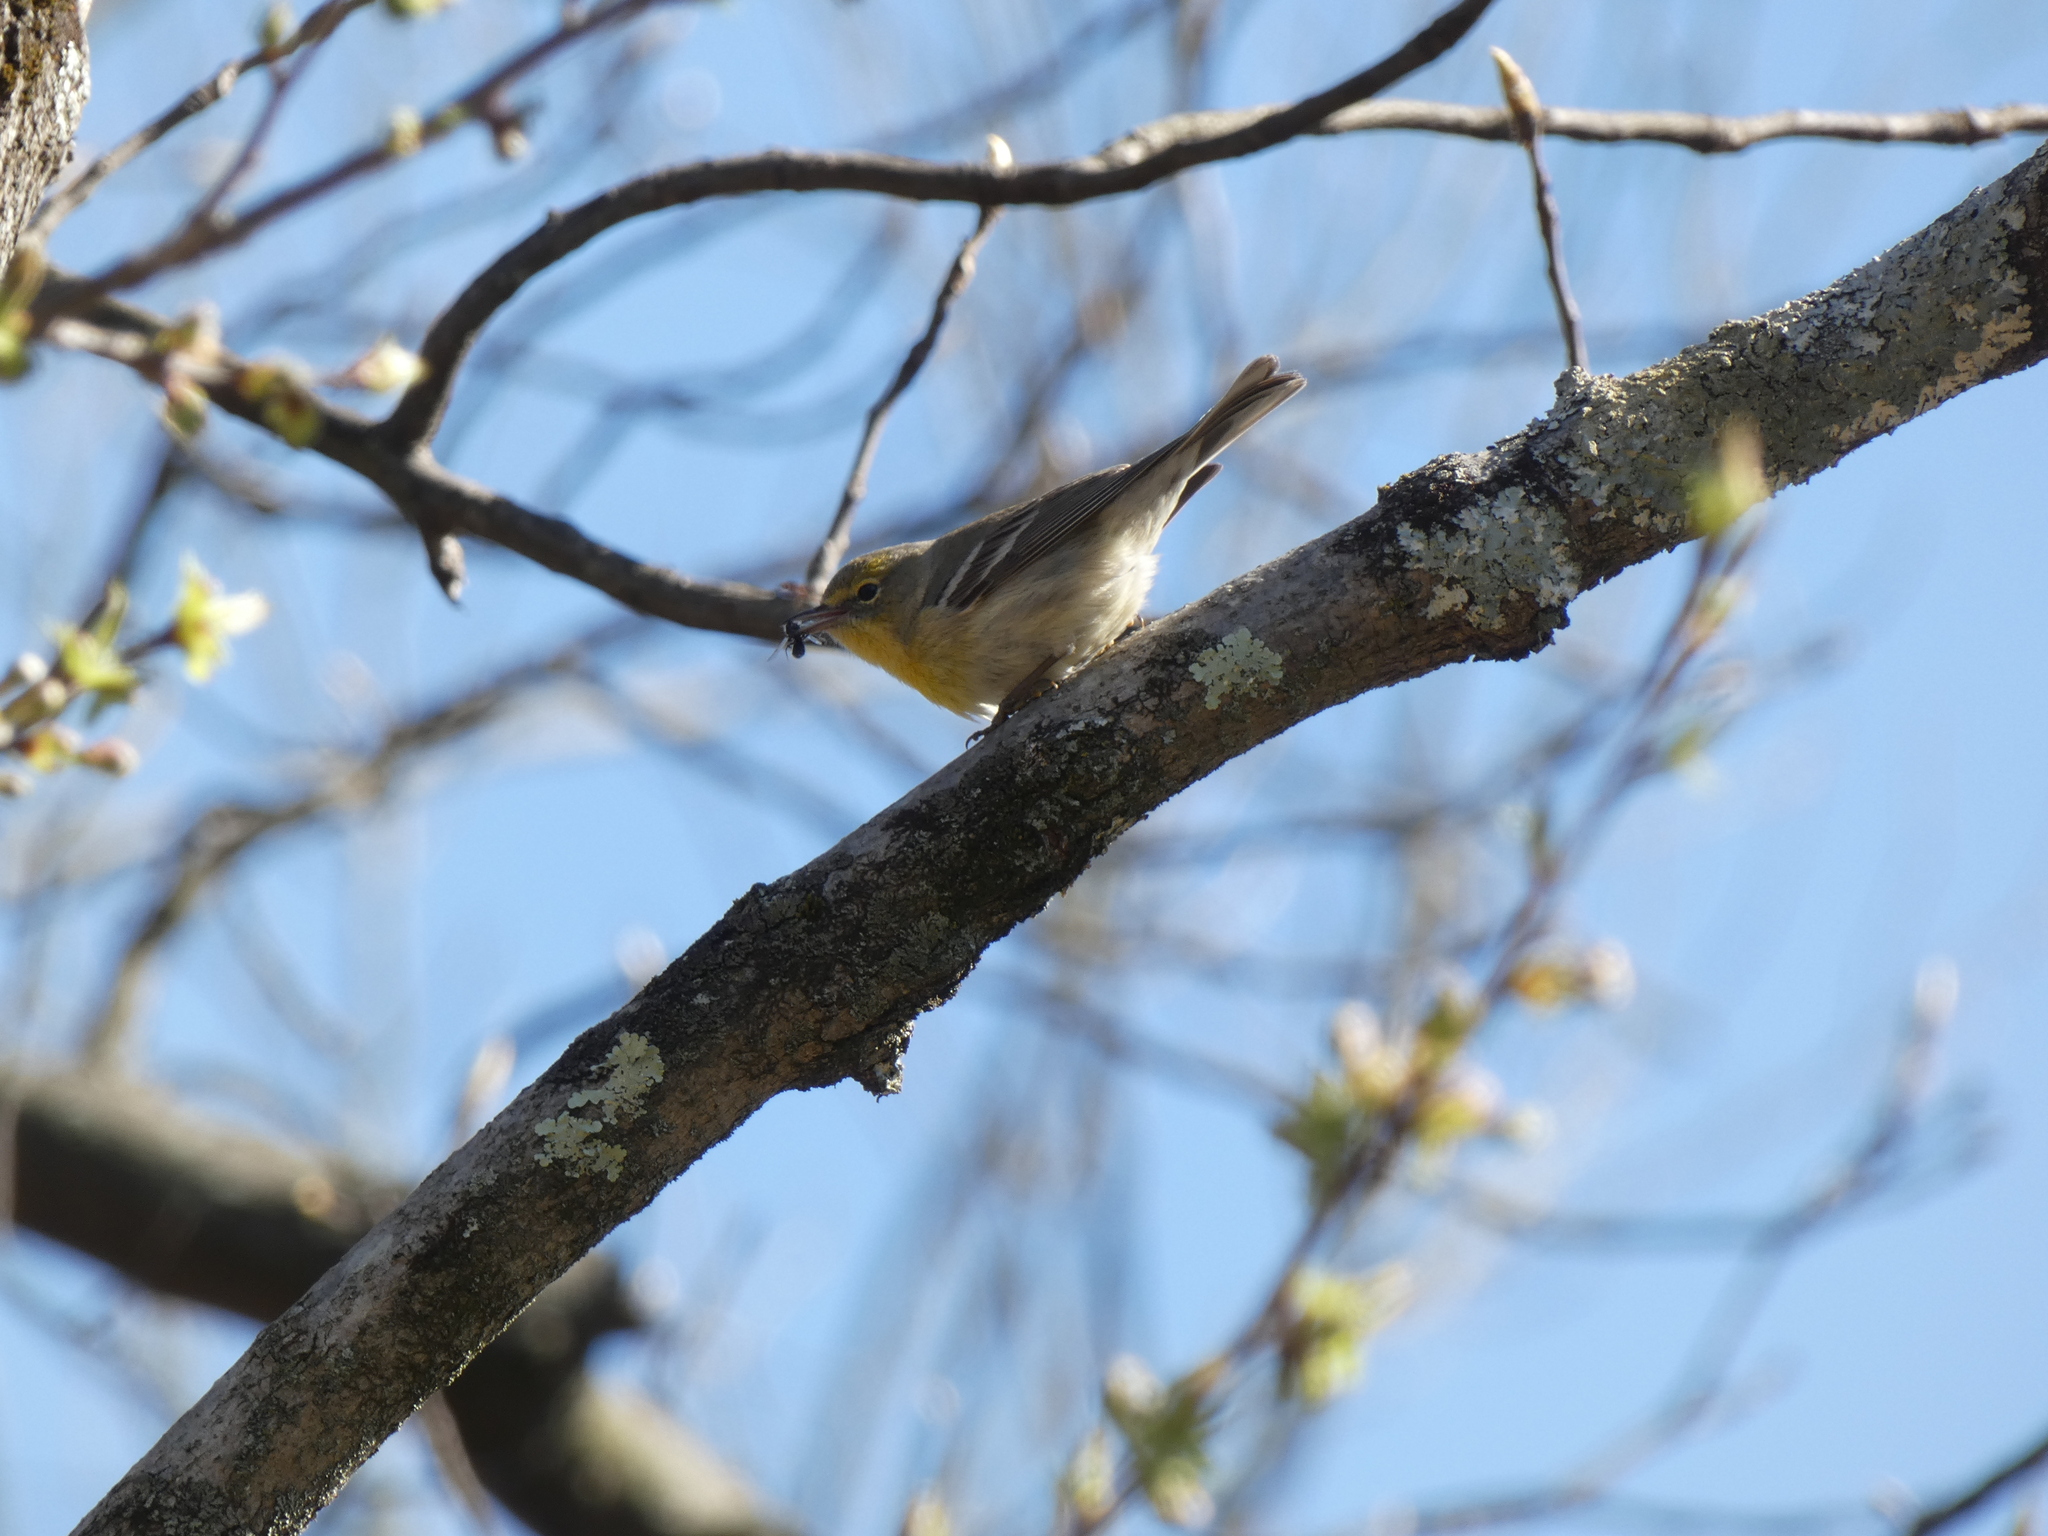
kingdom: Animalia
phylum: Chordata
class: Aves
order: Passeriformes
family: Vireonidae
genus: Vireo
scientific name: Vireo flavifrons
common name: Yellow-throated vireo
